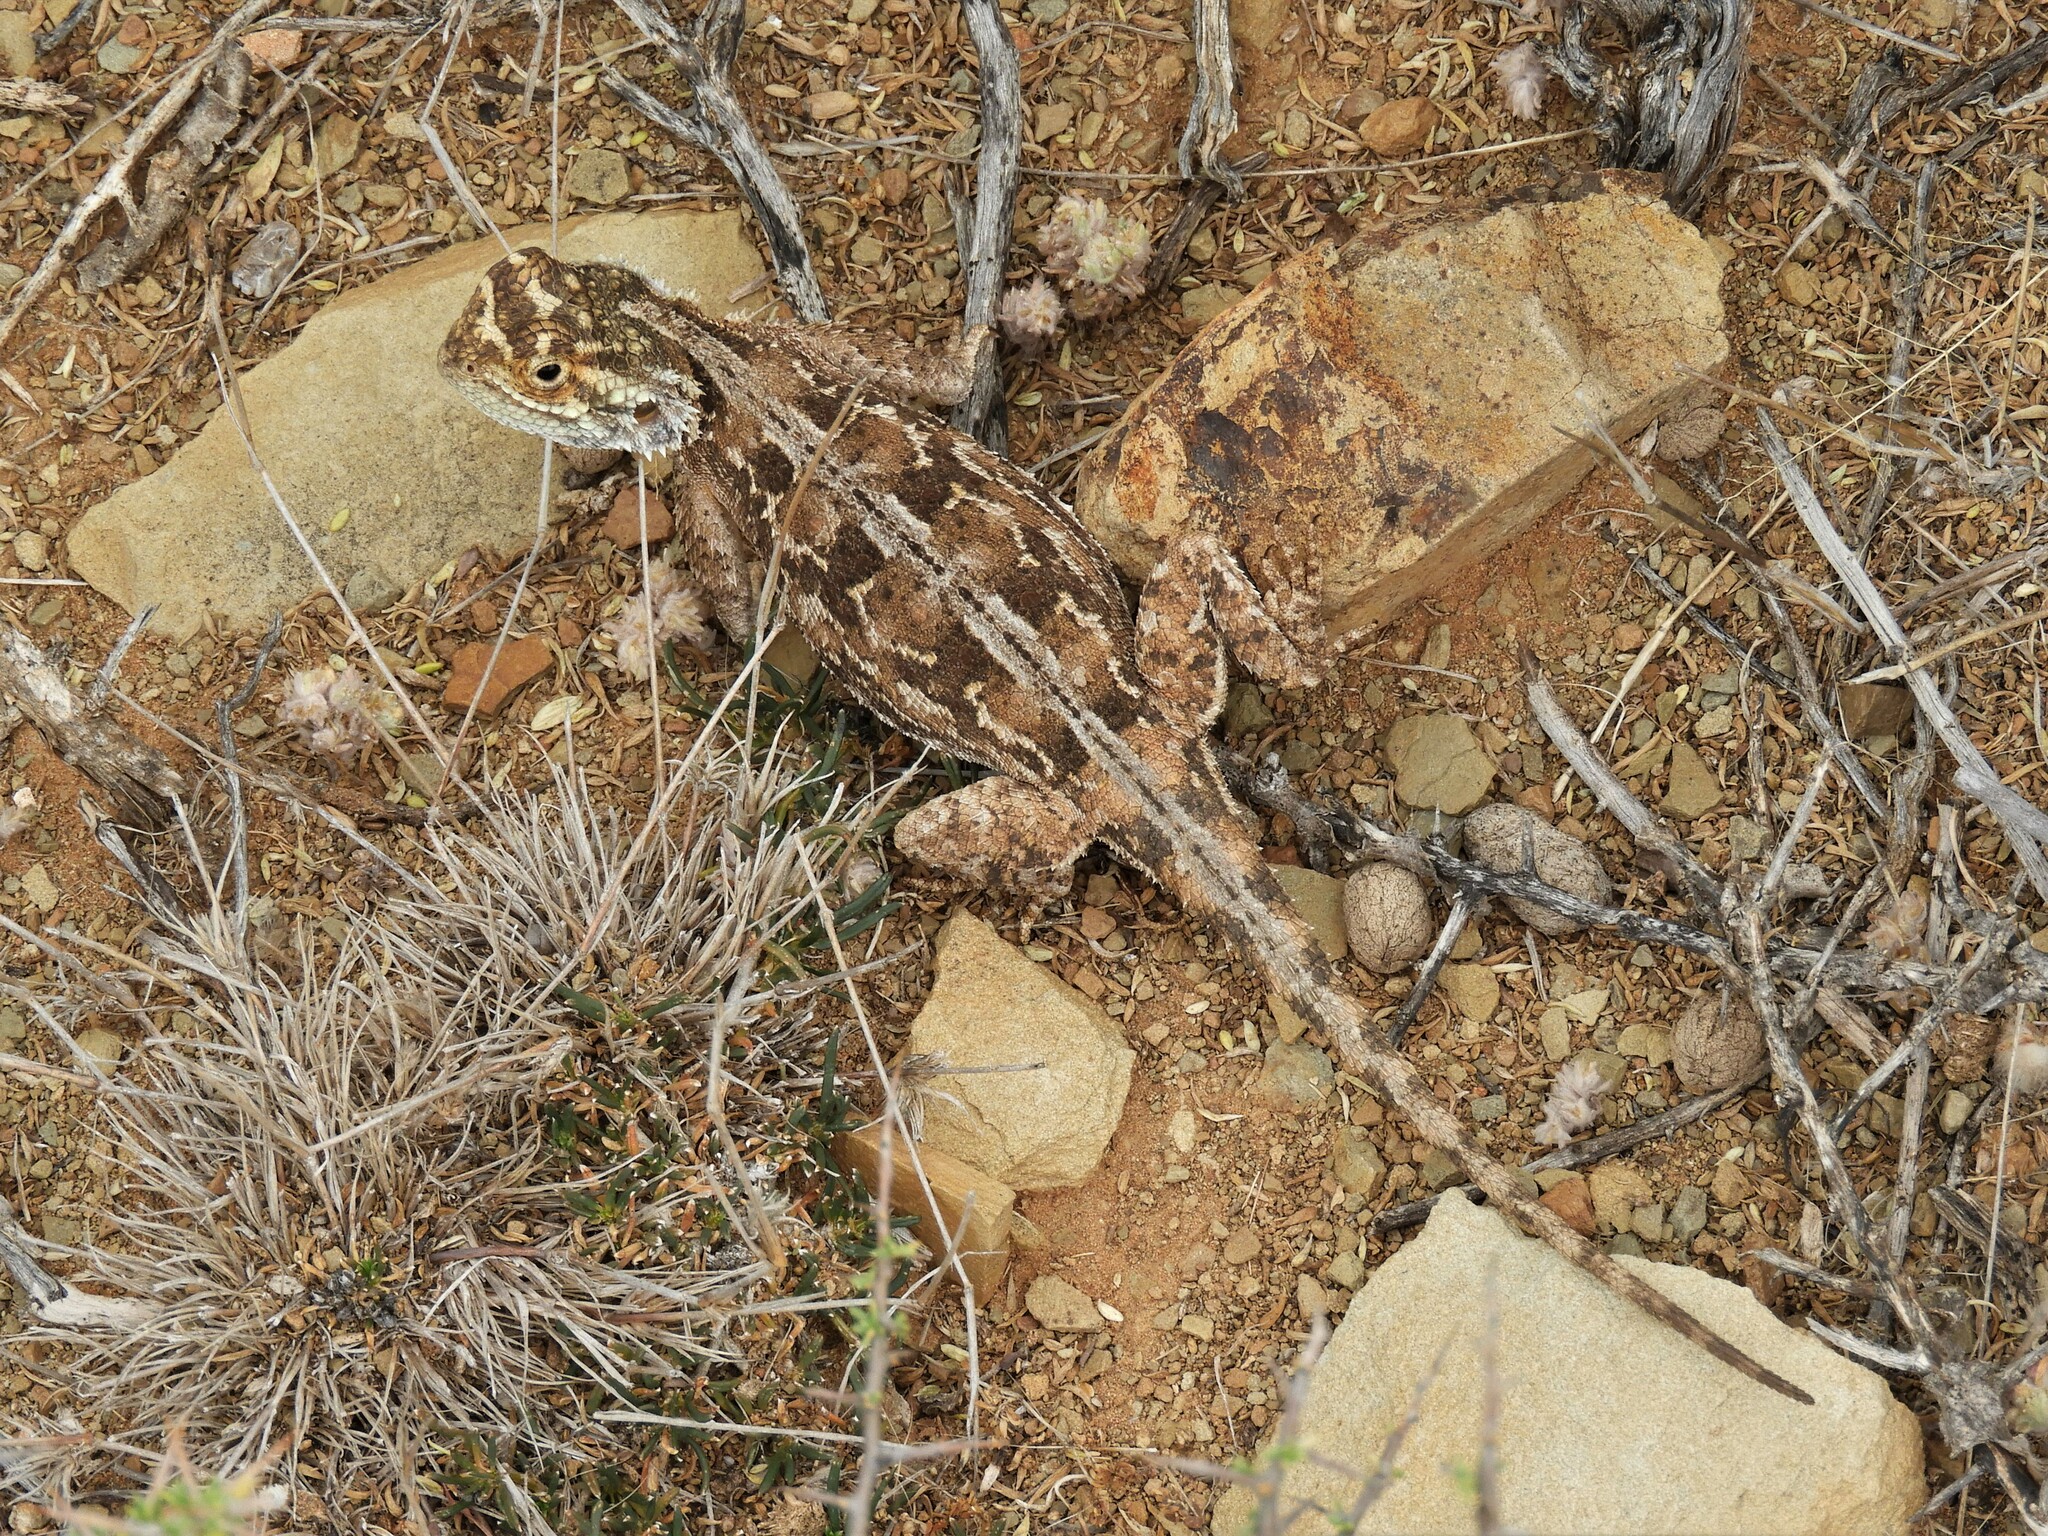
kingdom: Animalia
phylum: Chordata
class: Squamata
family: Agamidae
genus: Agama
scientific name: Agama aculeata
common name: Common ground agama
